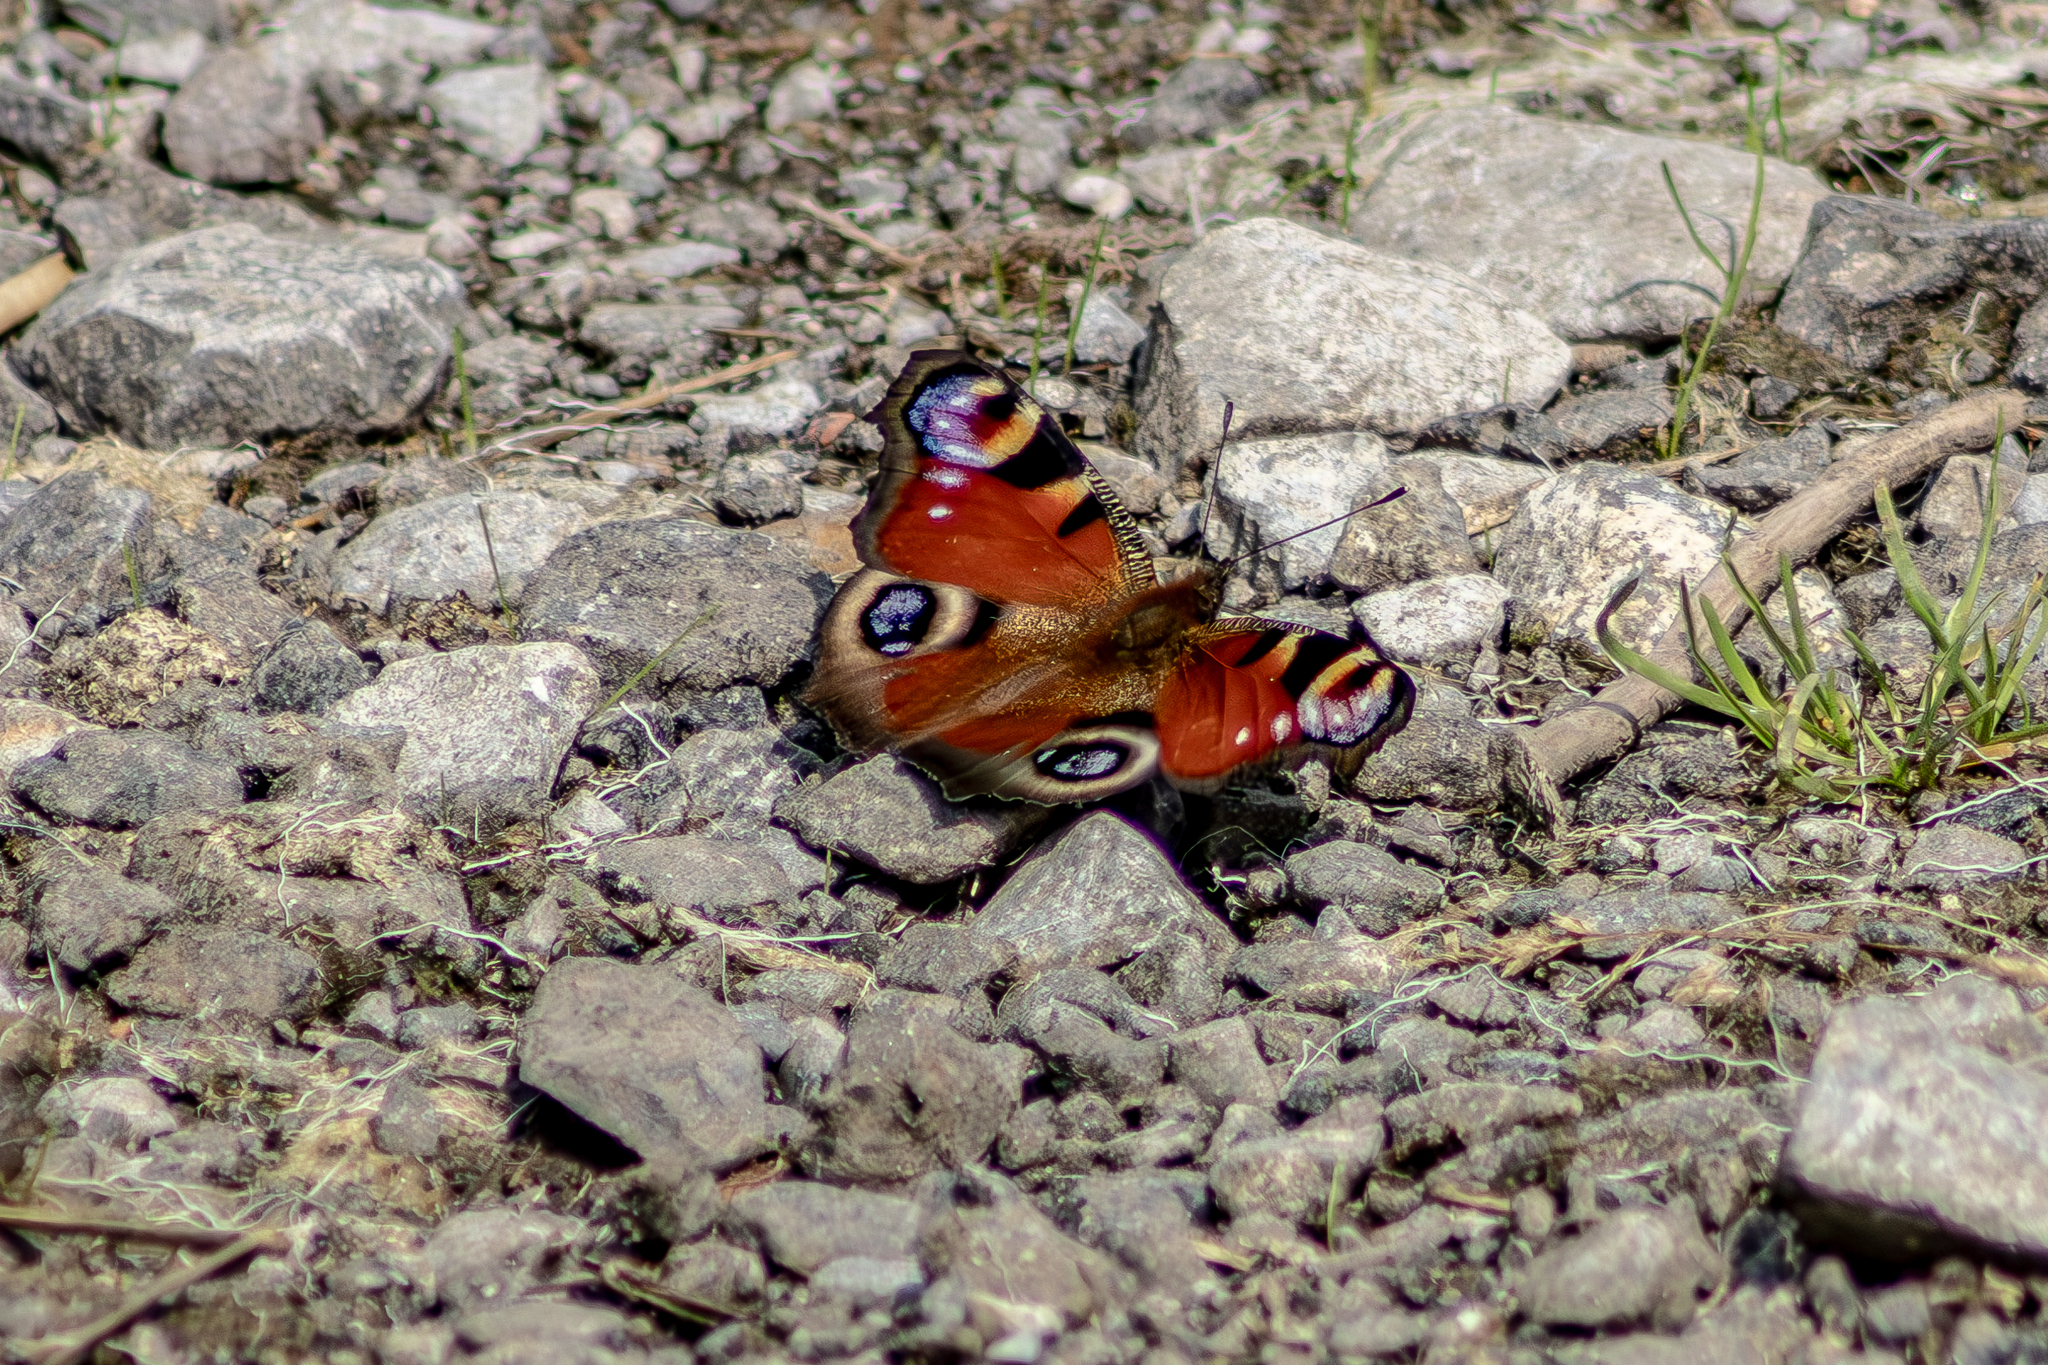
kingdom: Animalia
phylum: Arthropoda
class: Insecta
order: Lepidoptera
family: Nymphalidae
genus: Aglais
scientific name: Aglais io
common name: Peacock
